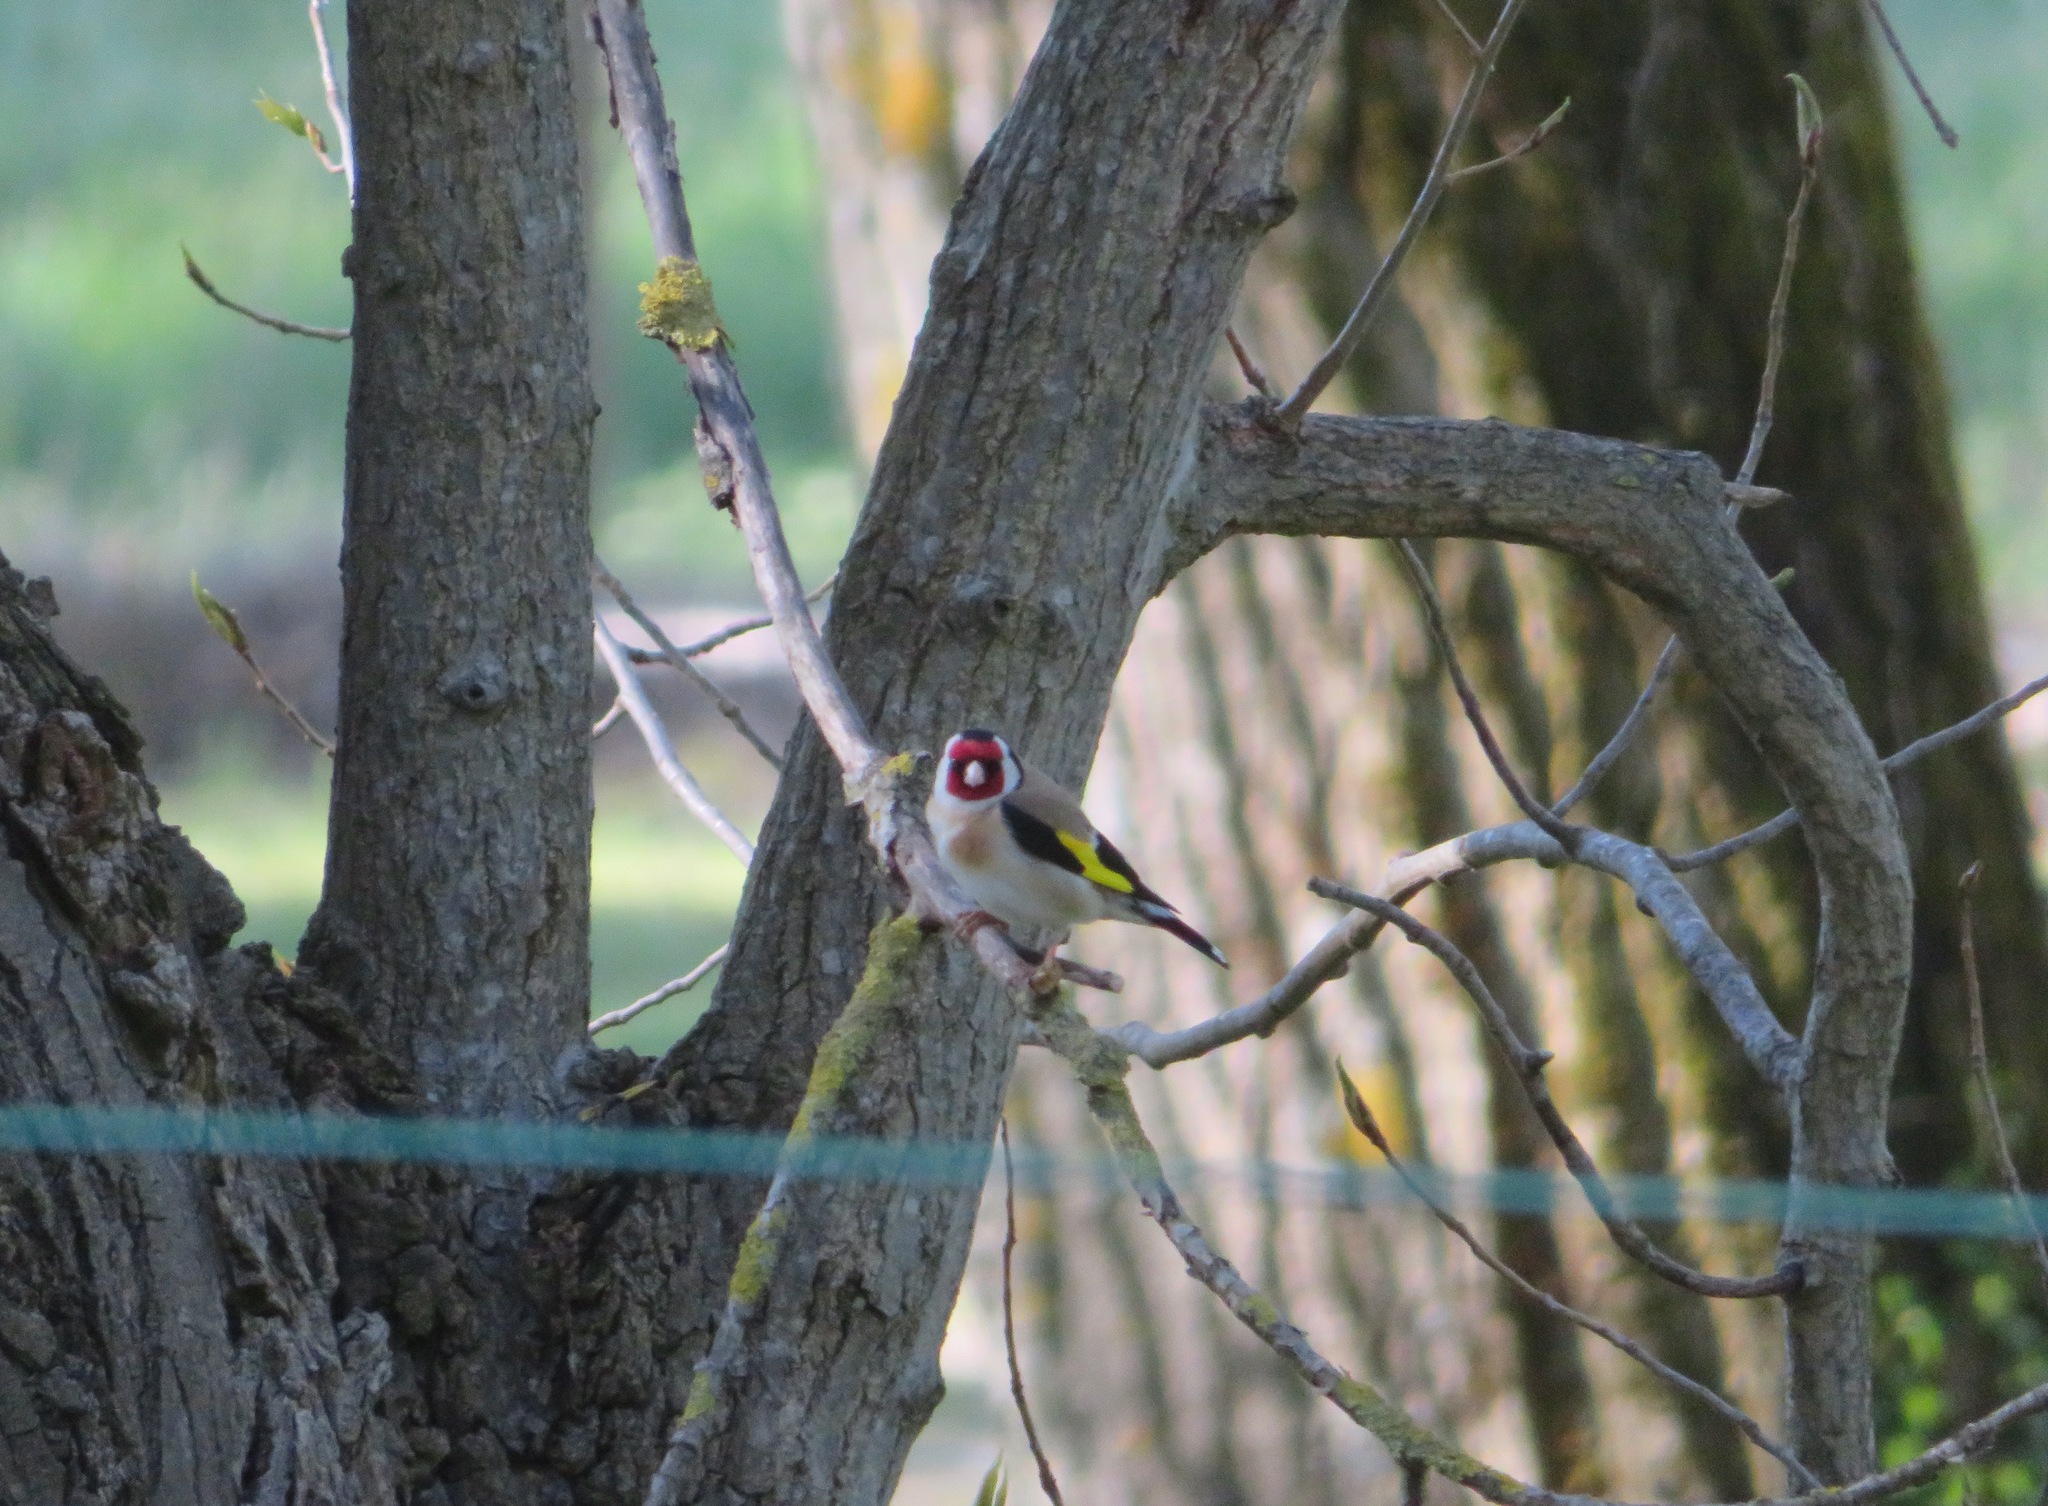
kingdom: Animalia
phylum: Chordata
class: Aves
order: Passeriformes
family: Fringillidae
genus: Carduelis
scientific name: Carduelis carduelis
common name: European goldfinch
